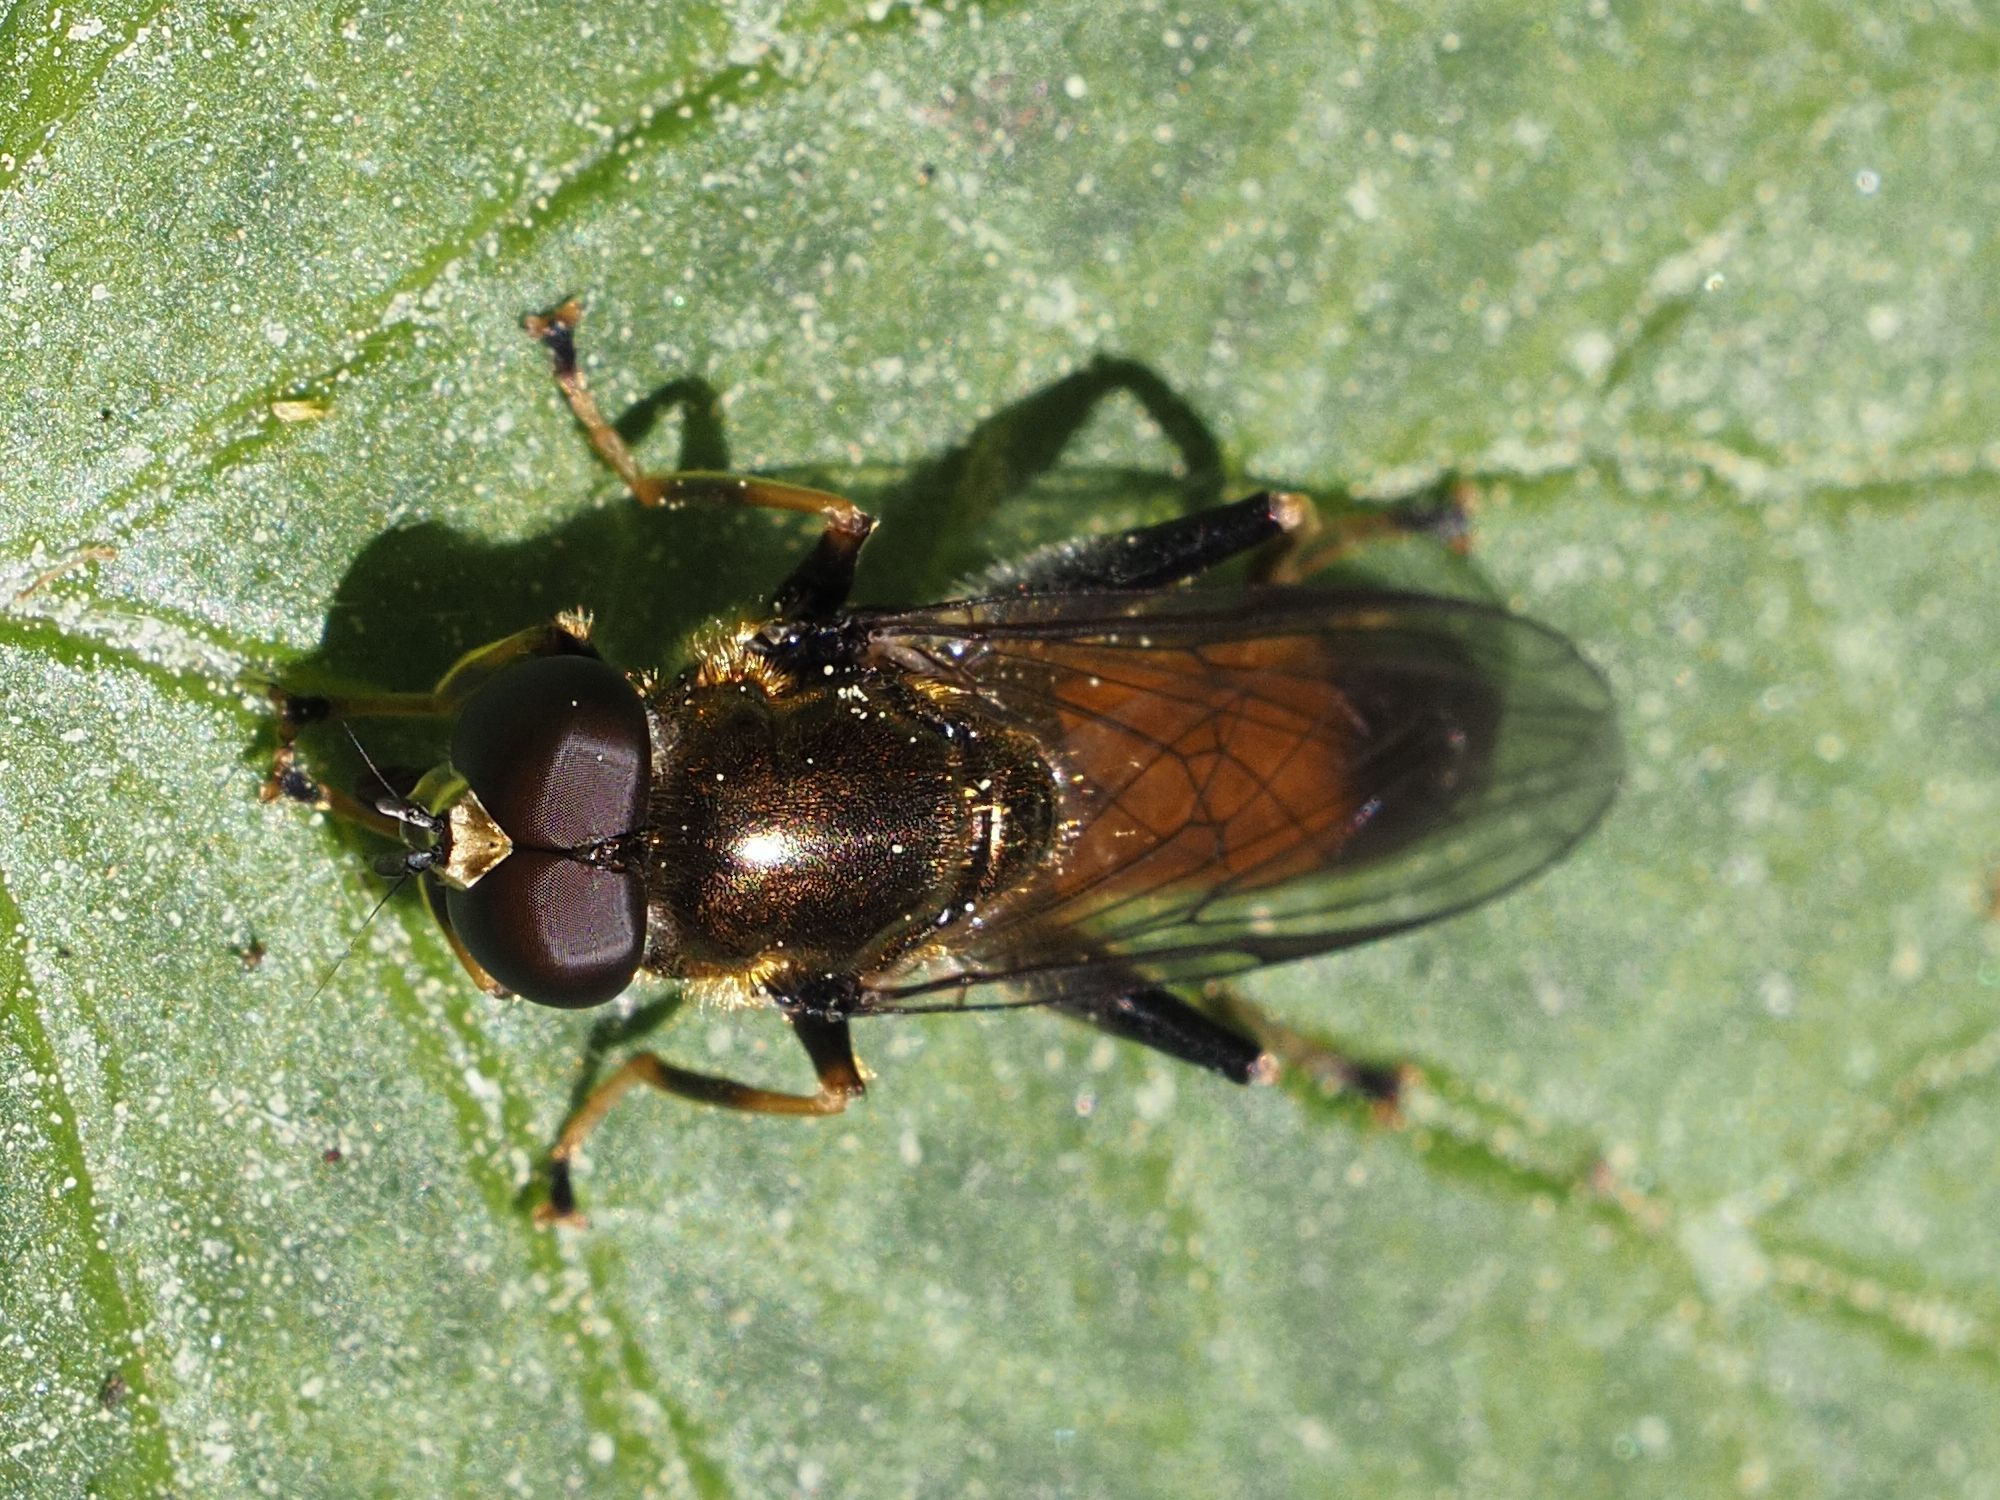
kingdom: Animalia
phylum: Arthropoda
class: Insecta
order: Diptera
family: Syrphidae
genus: Xylota
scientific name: Xylota segnis
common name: Brown-toed forest fly
